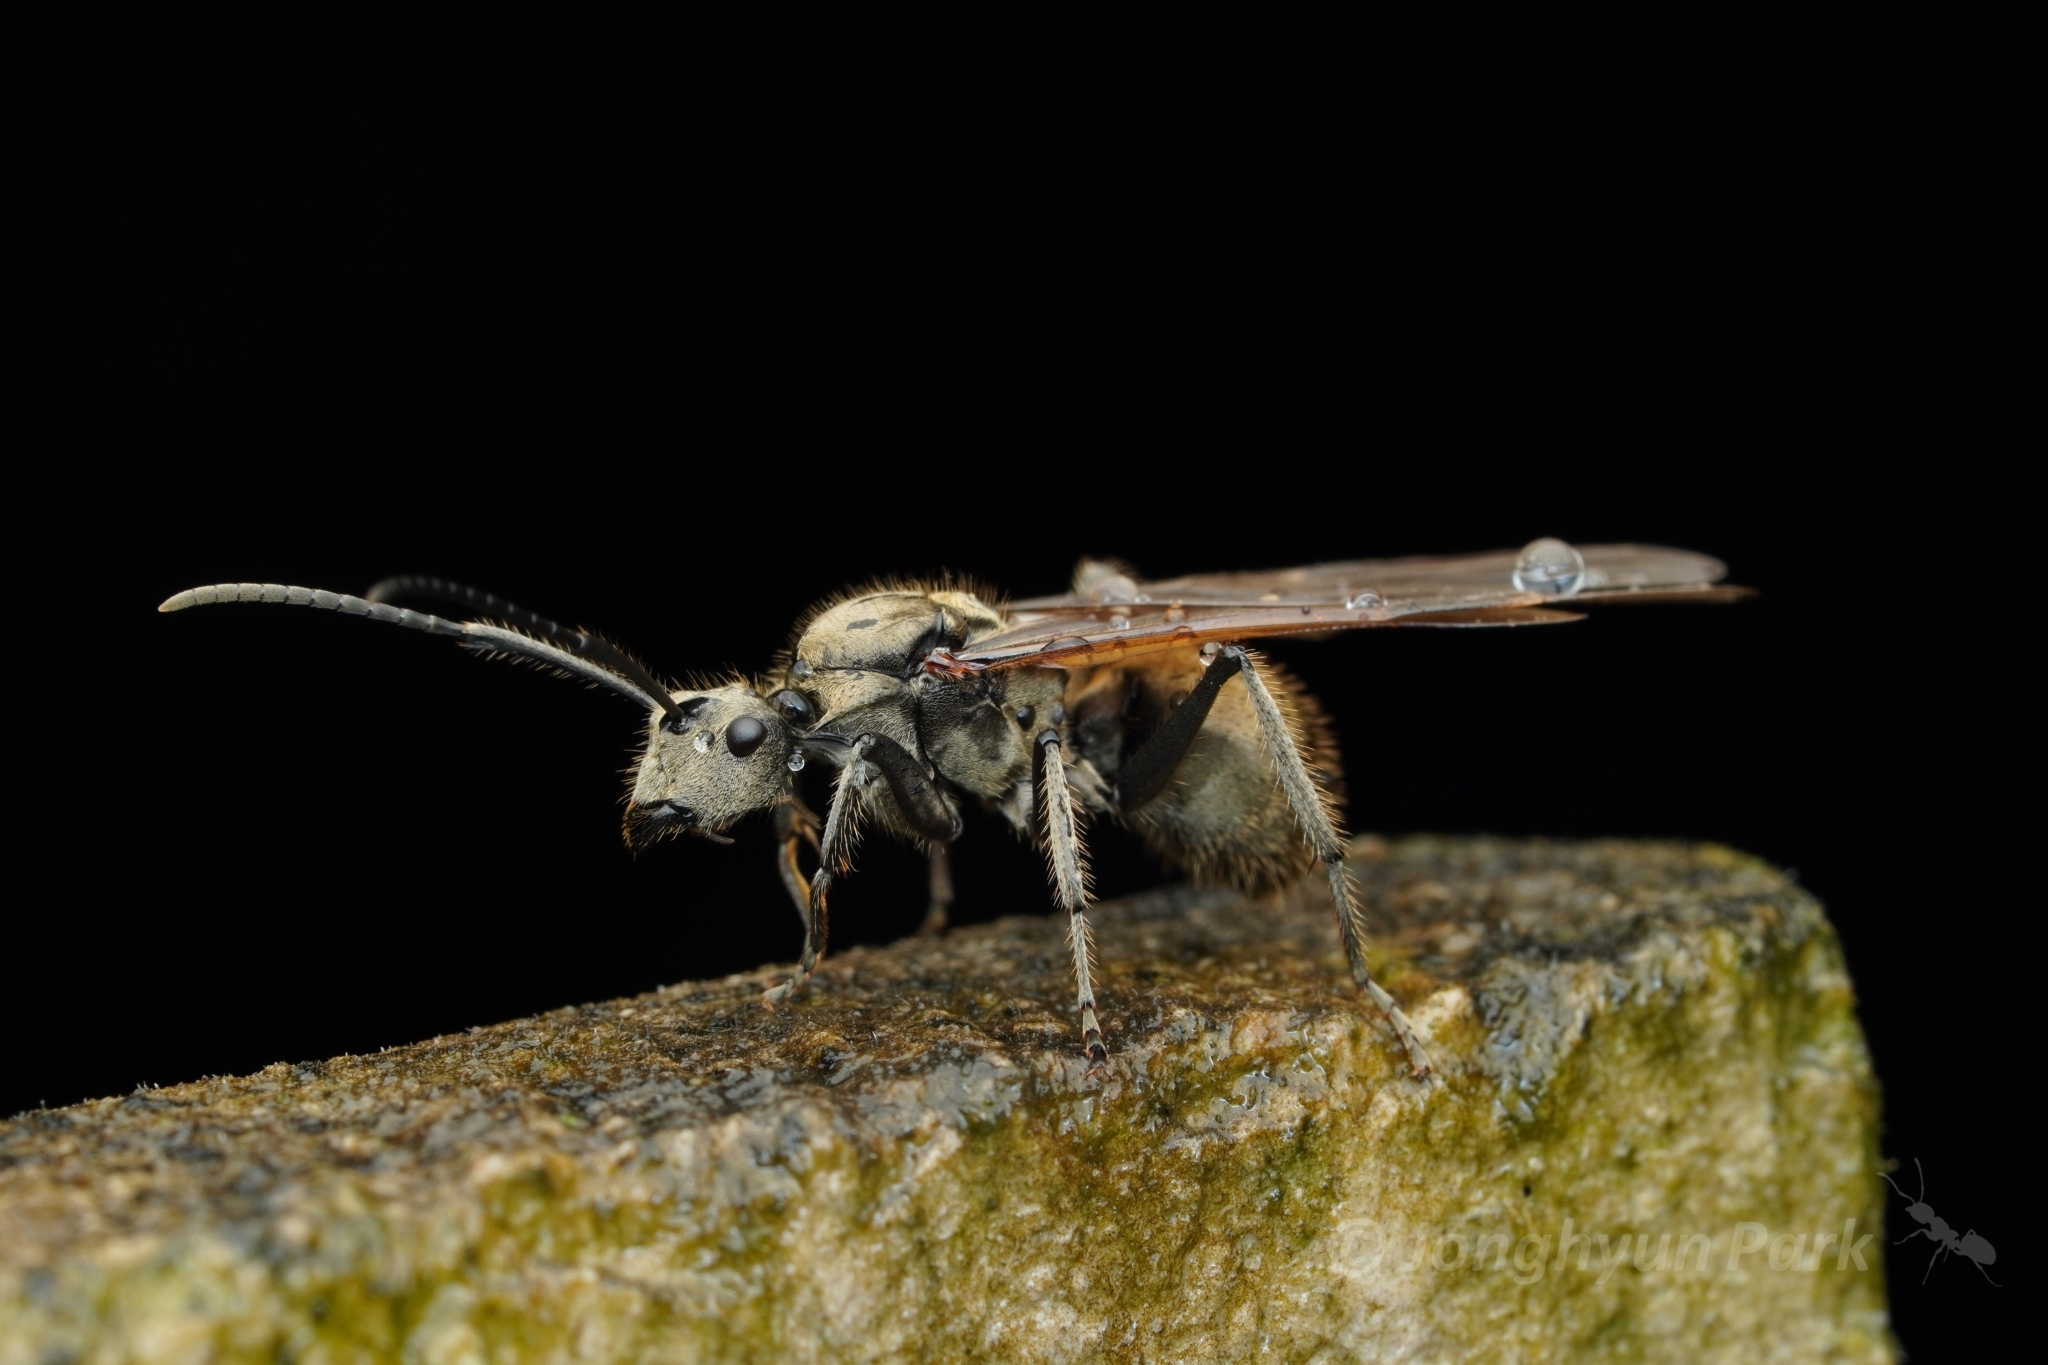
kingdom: Animalia
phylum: Arthropoda
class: Insecta
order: Hymenoptera
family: Formicidae
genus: Polyrhachis
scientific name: Polyrhachis proxima
